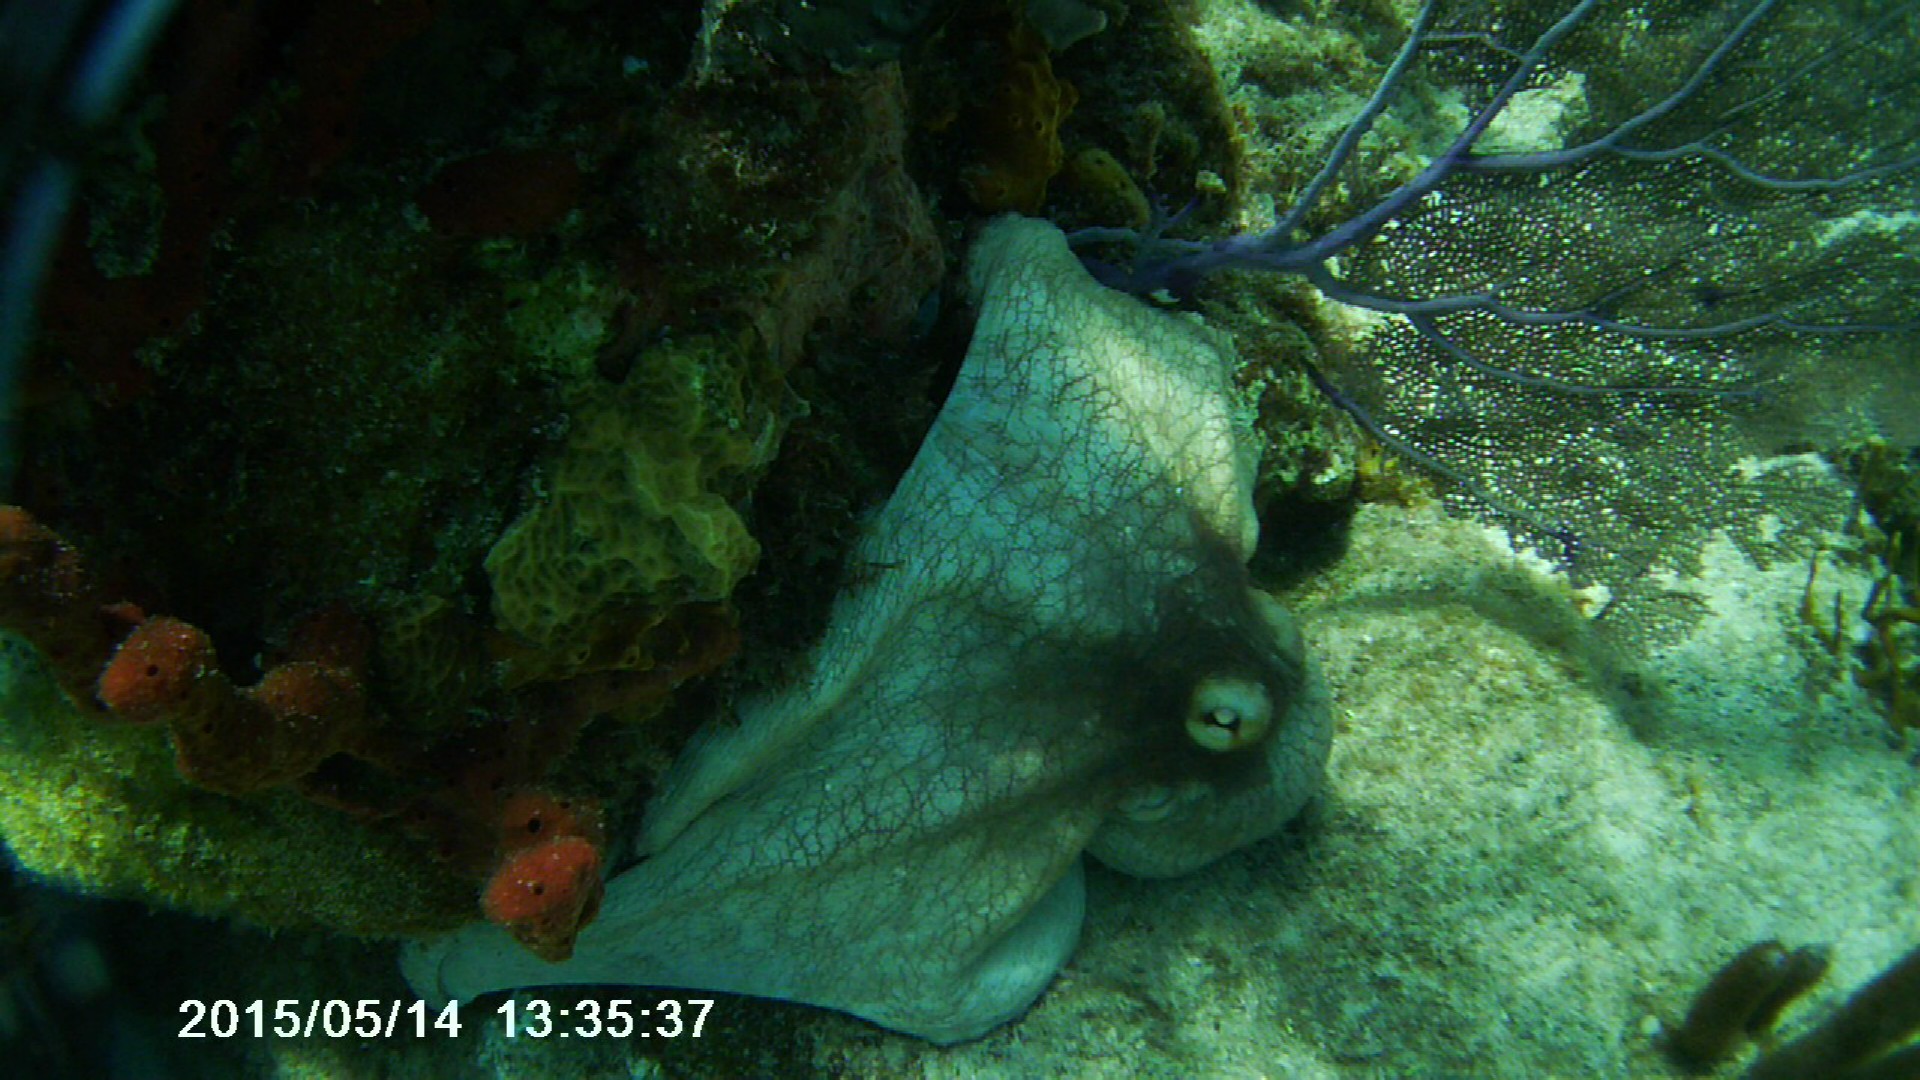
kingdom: Animalia
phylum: Mollusca
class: Cephalopoda
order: Octopoda
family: Octopodidae
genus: Octopus
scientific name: Octopus insularis
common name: Brazil reef octopus
